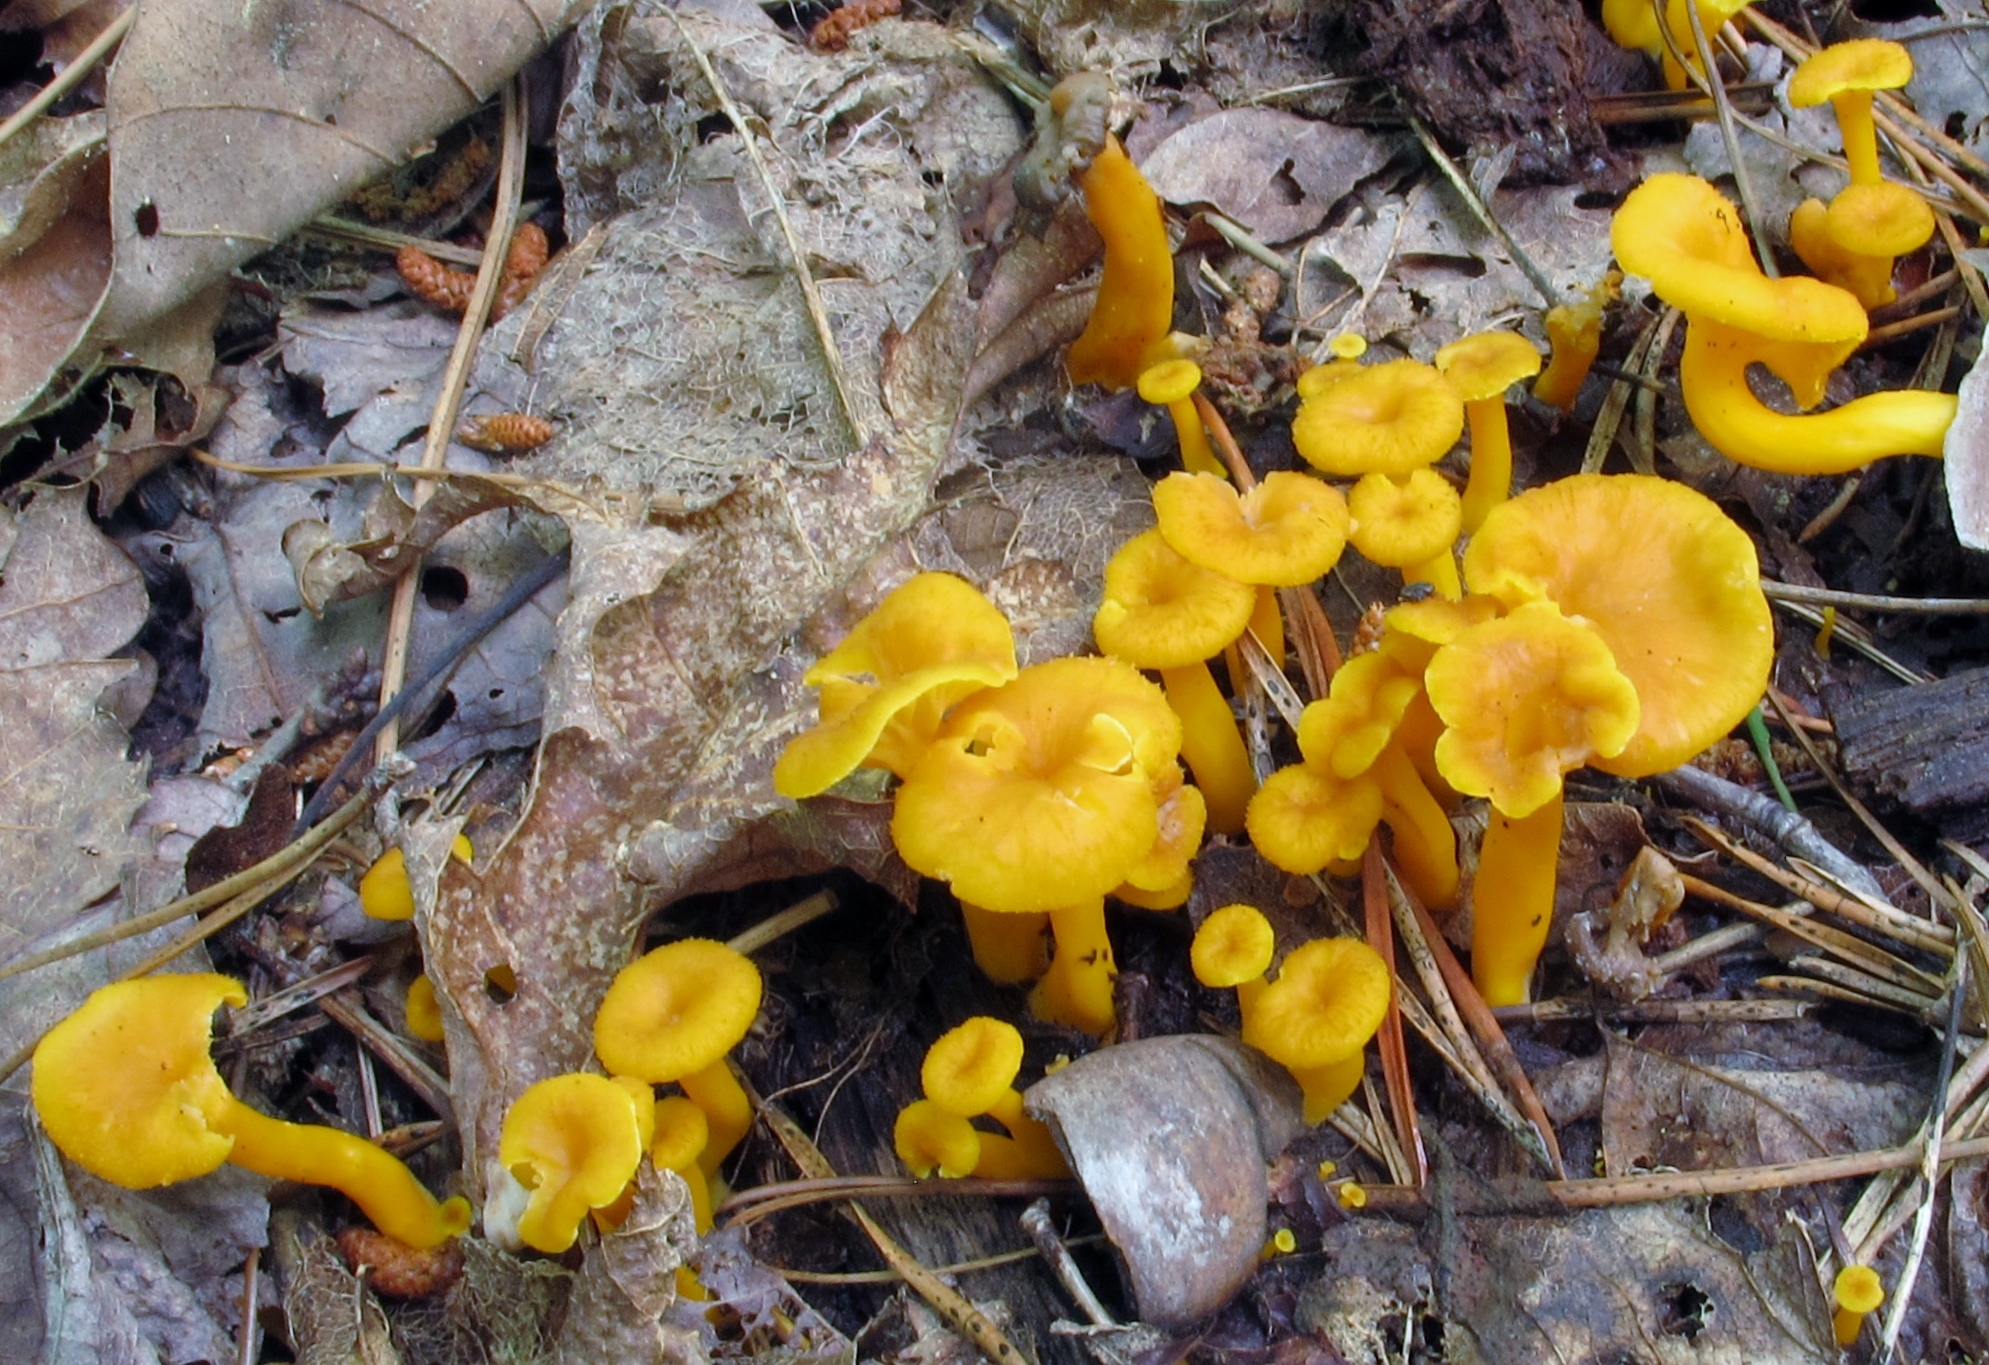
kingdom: Fungi
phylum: Basidiomycota
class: Agaricomycetes
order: Cantharellales
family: Hydnaceae
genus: Craterellus
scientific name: Craterellus ignicolor
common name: Flame chanterelle
